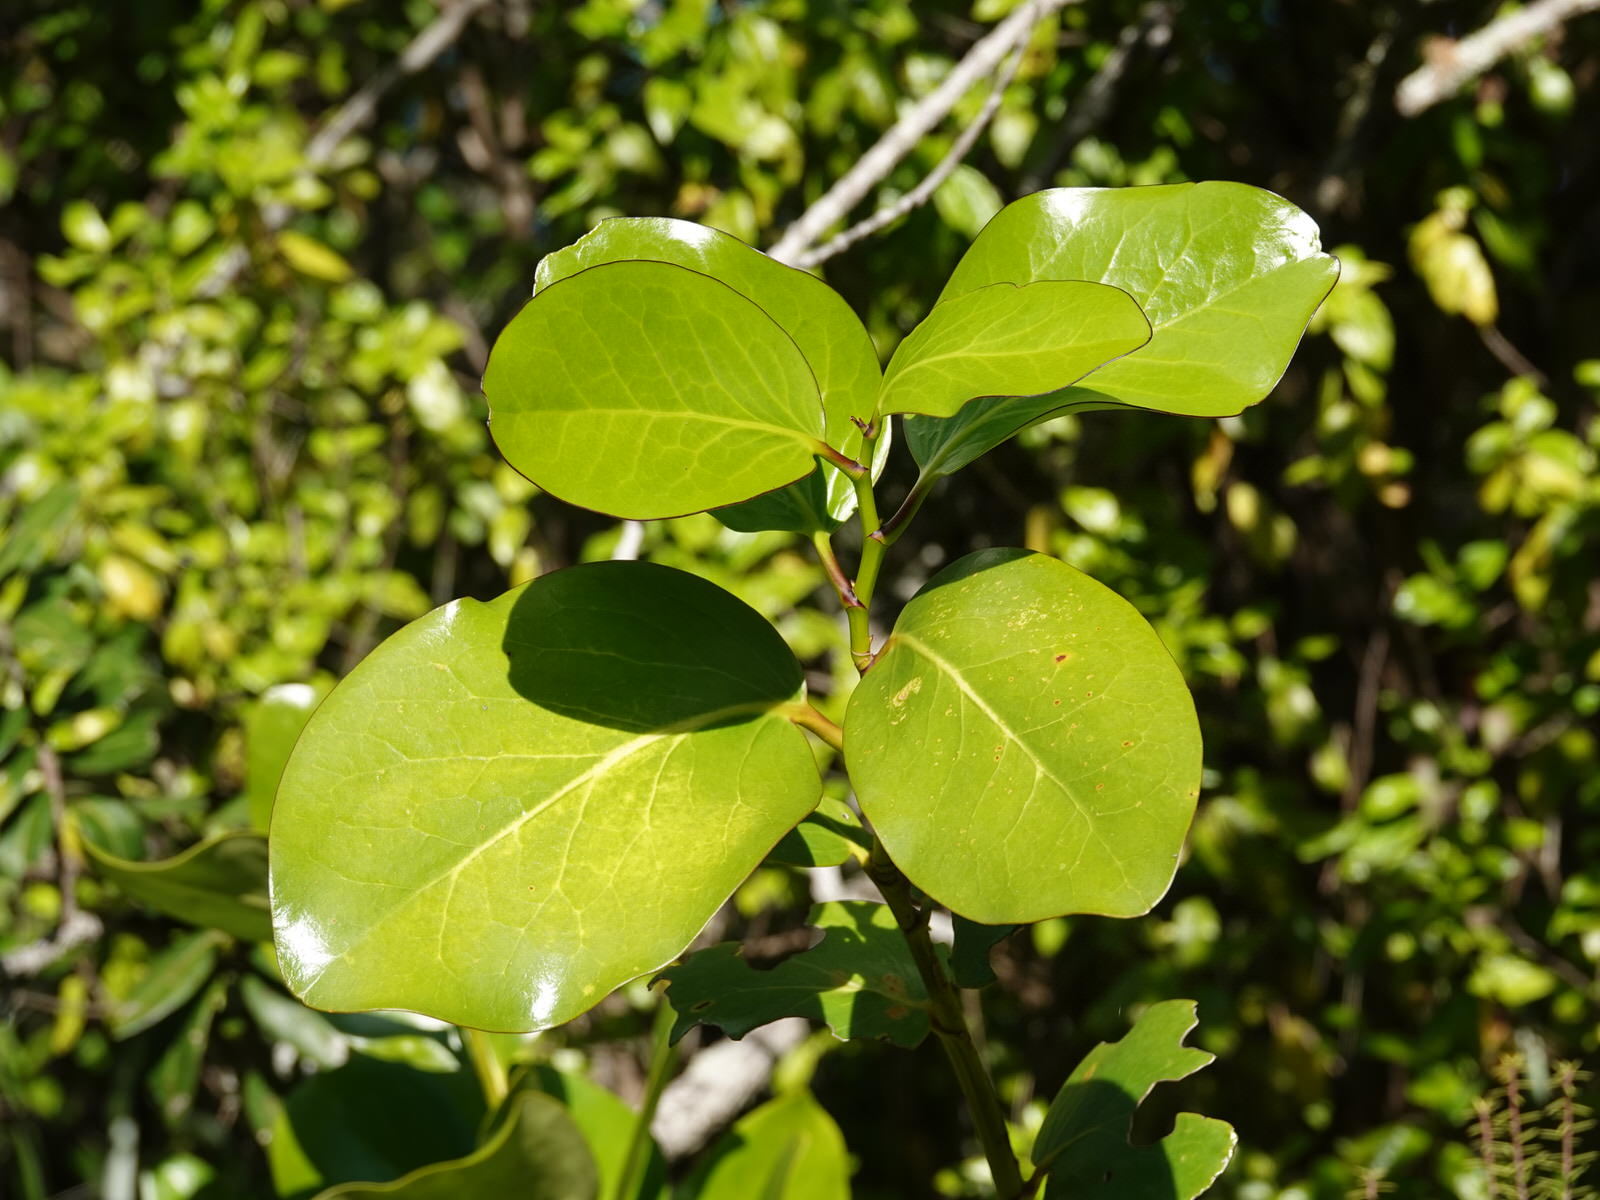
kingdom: Plantae
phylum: Tracheophyta
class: Magnoliopsida
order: Apiales
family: Griseliniaceae
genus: Griselinia
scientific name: Griselinia lucida
